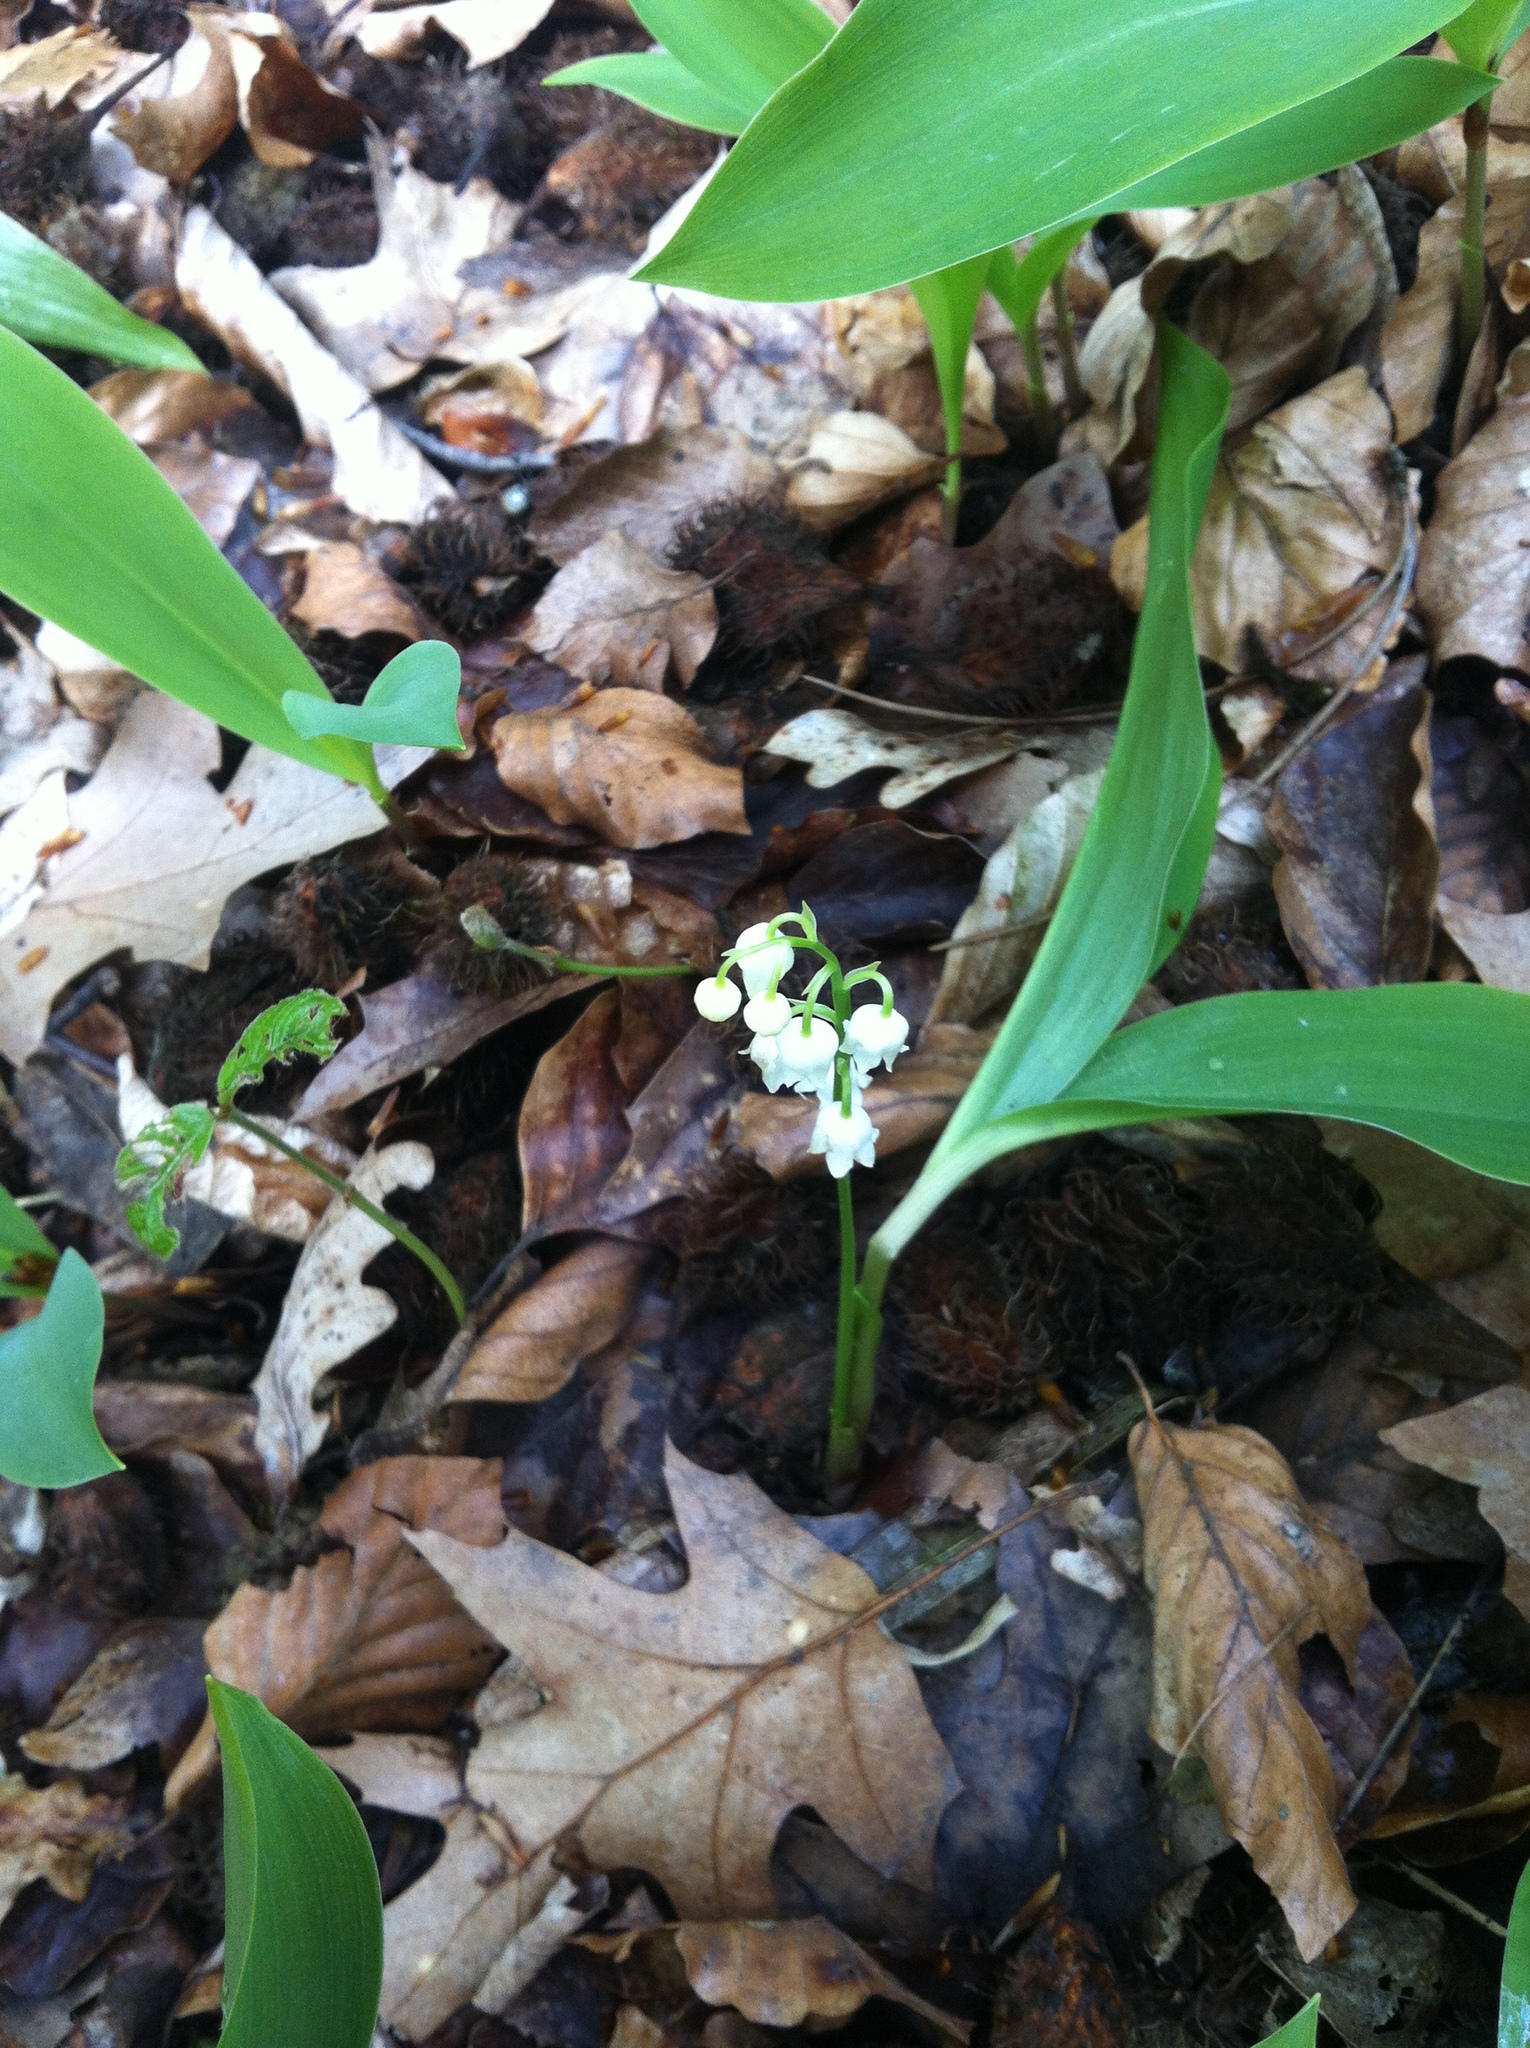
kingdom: Plantae
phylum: Tracheophyta
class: Liliopsida
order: Asparagales
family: Asparagaceae
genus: Convallaria
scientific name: Convallaria majalis
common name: Lily-of-the-valley
